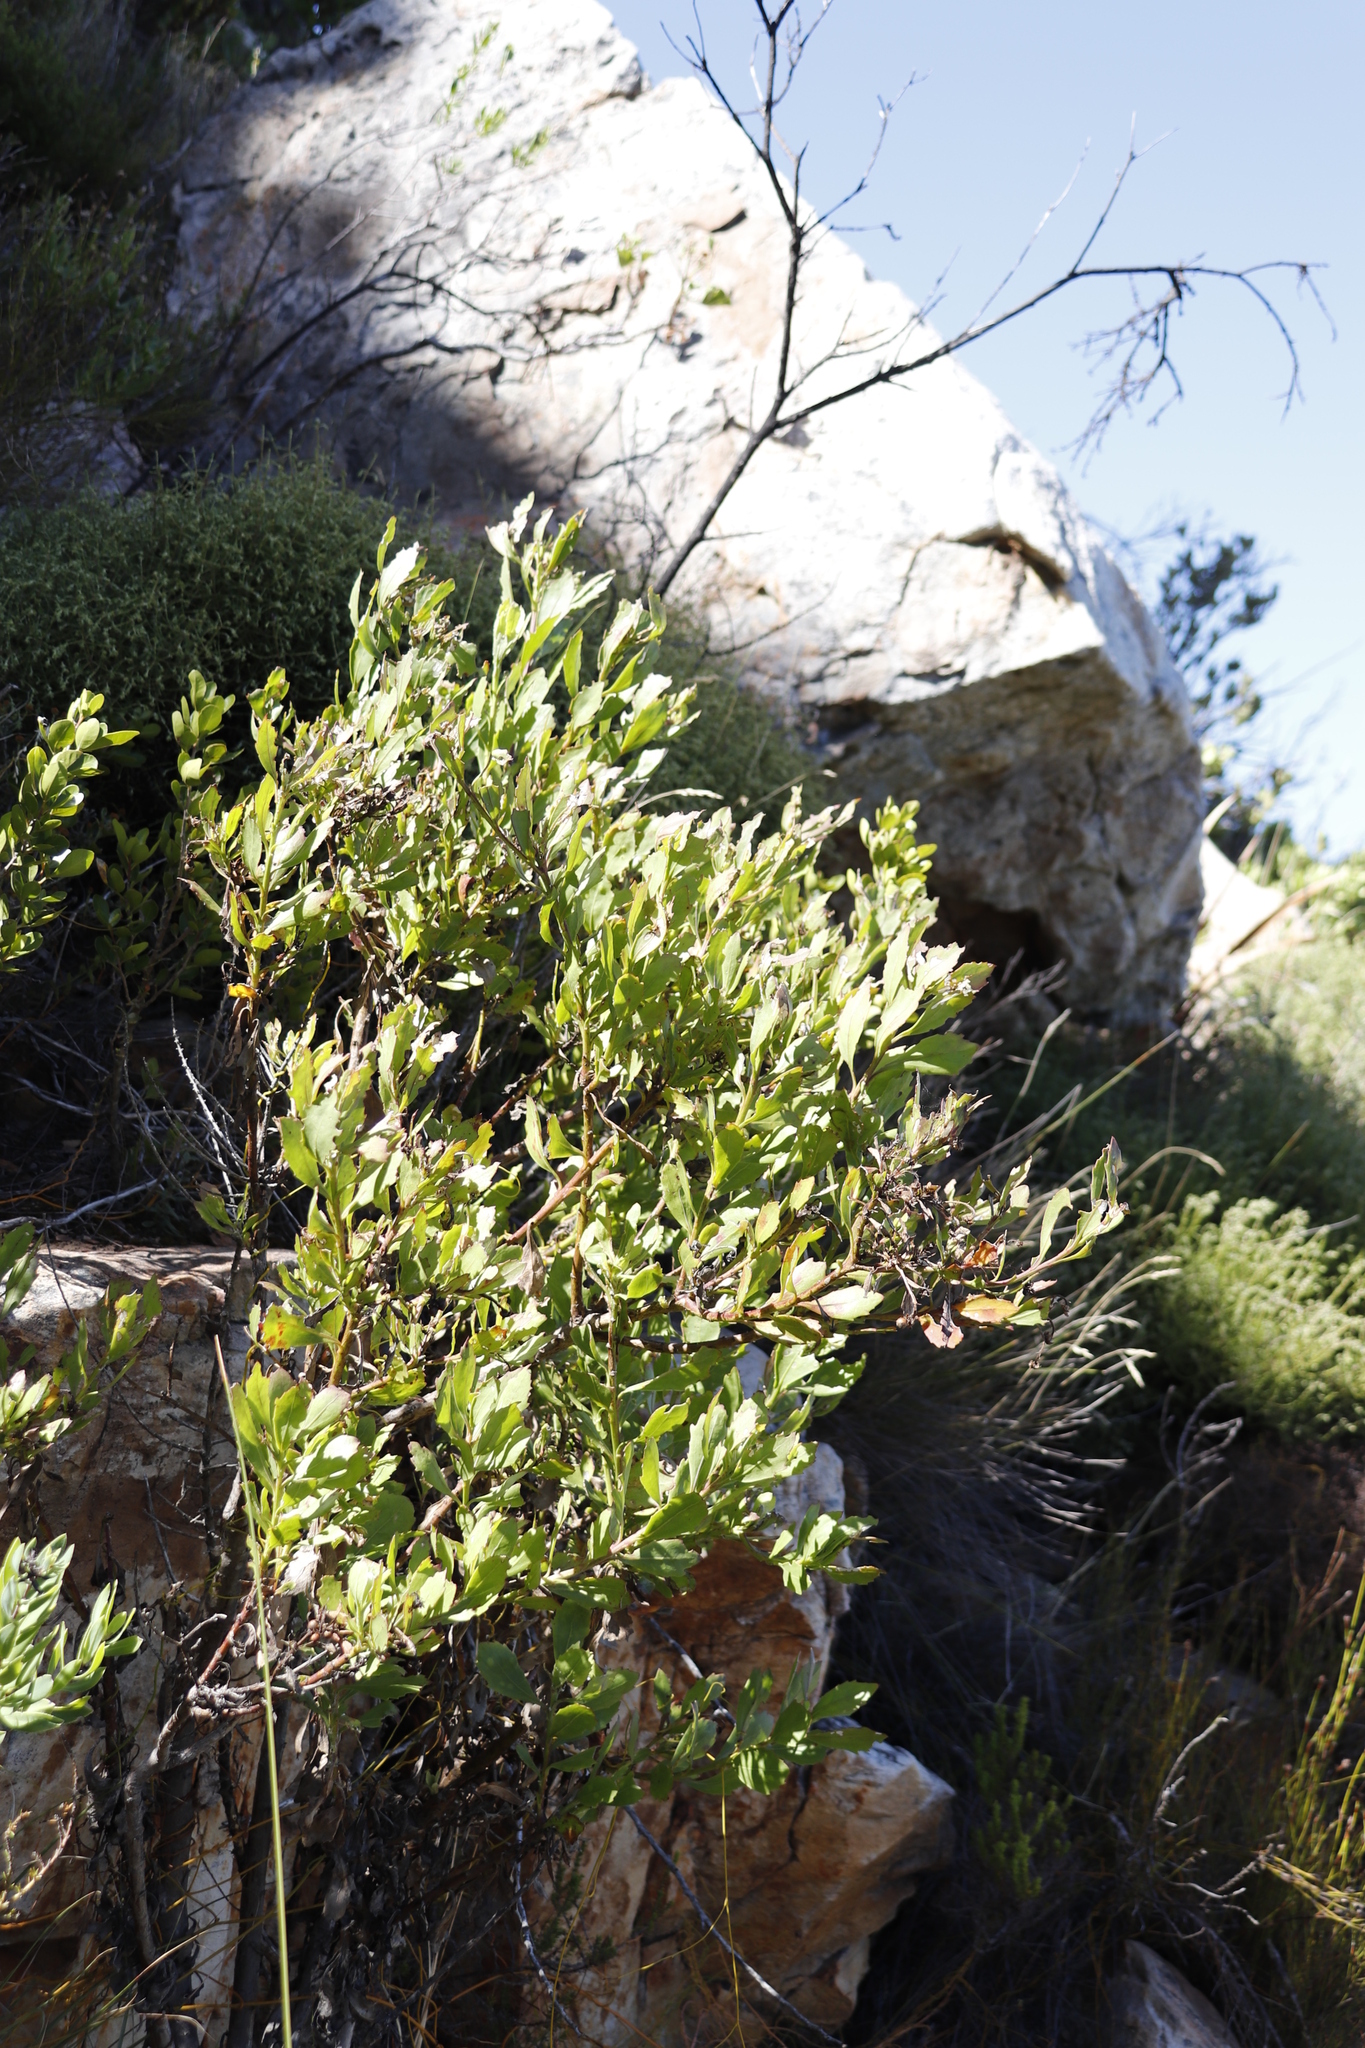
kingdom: Plantae
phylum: Tracheophyta
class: Magnoliopsida
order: Asterales
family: Asteraceae
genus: Osteospermum
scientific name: Osteospermum moniliferum
